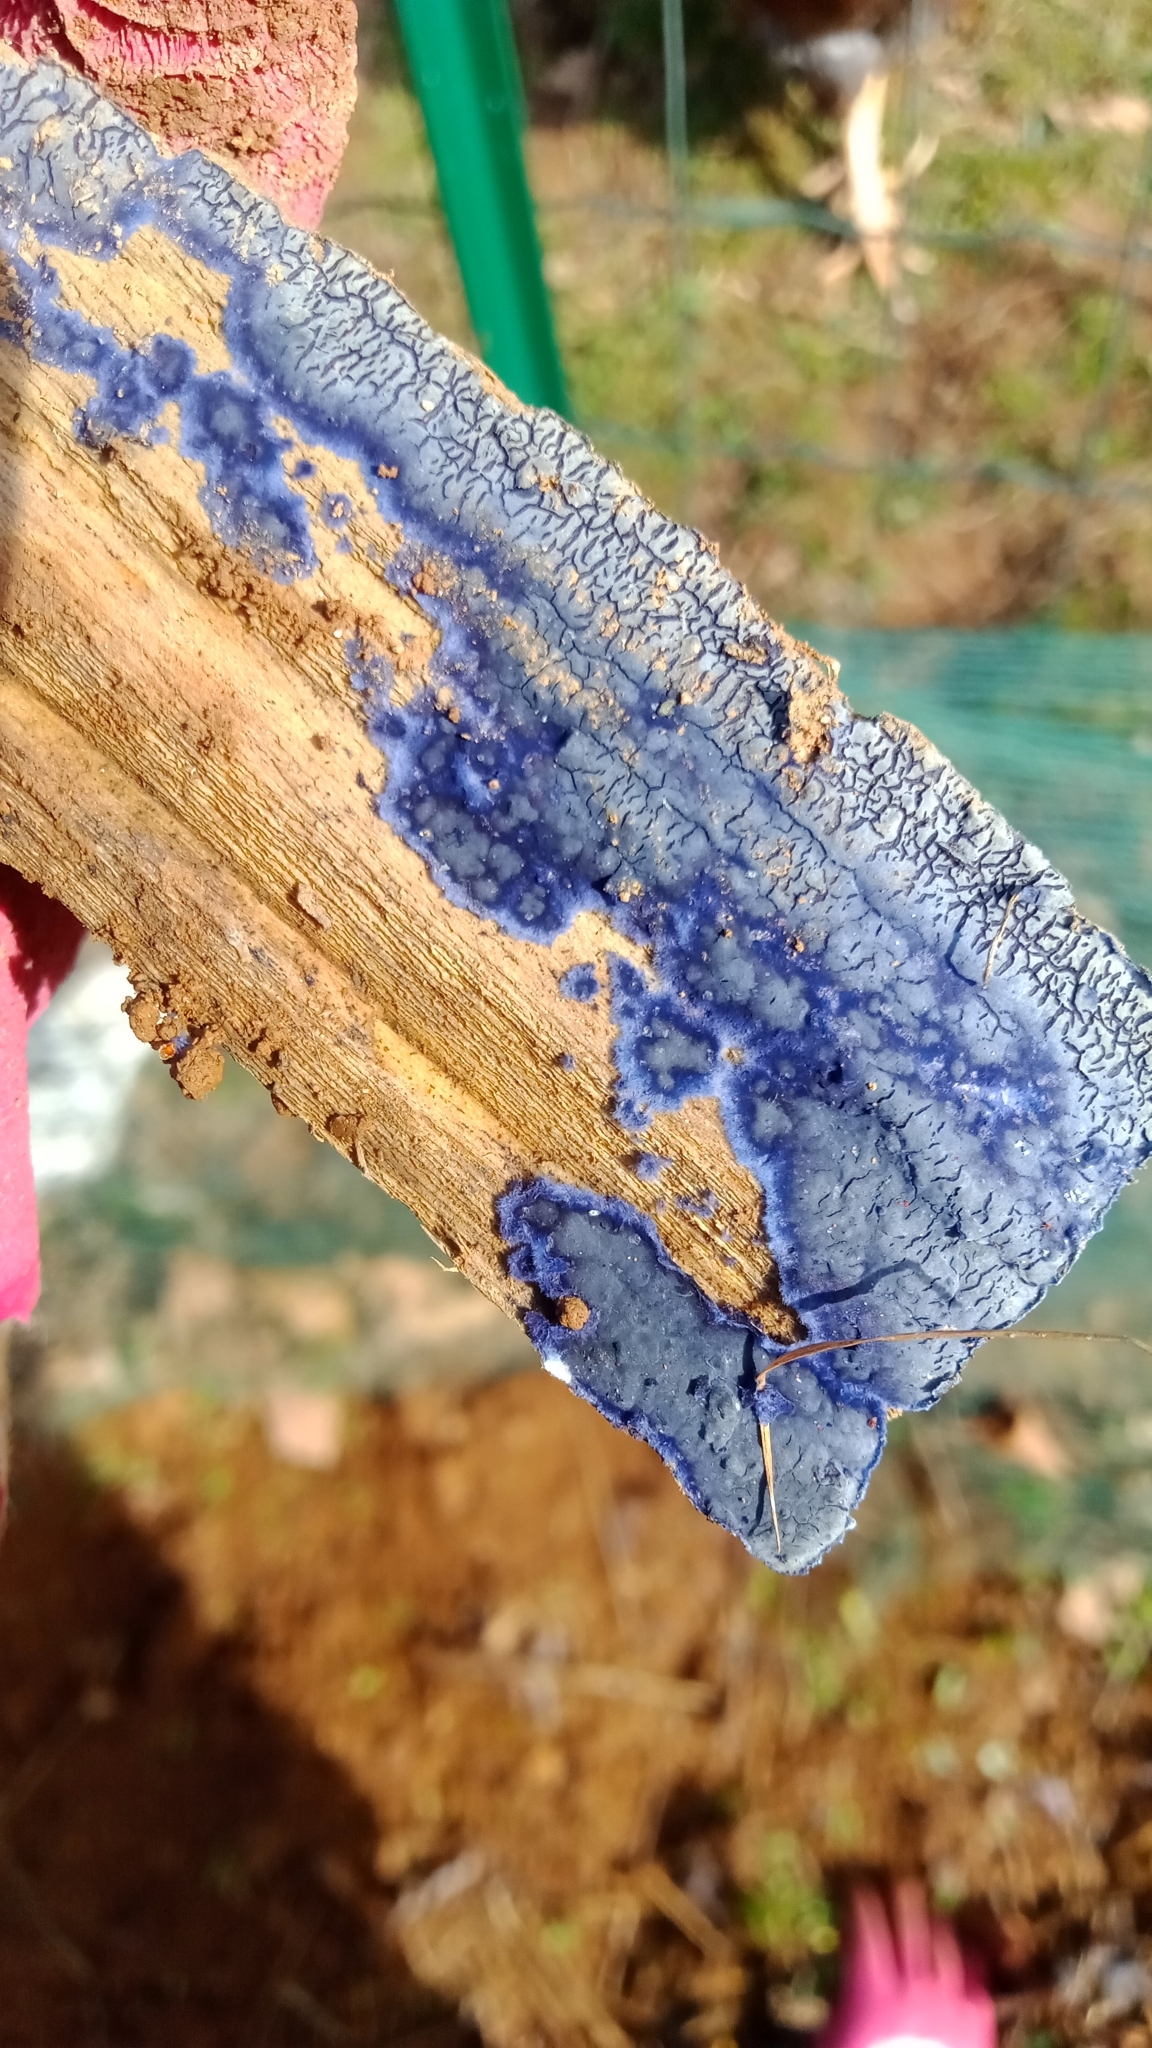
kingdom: Fungi
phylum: Basidiomycota
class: Agaricomycetes
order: Polyporales
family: Phanerochaetaceae
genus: Terana
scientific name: Terana coerulea
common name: Cobalt crust
